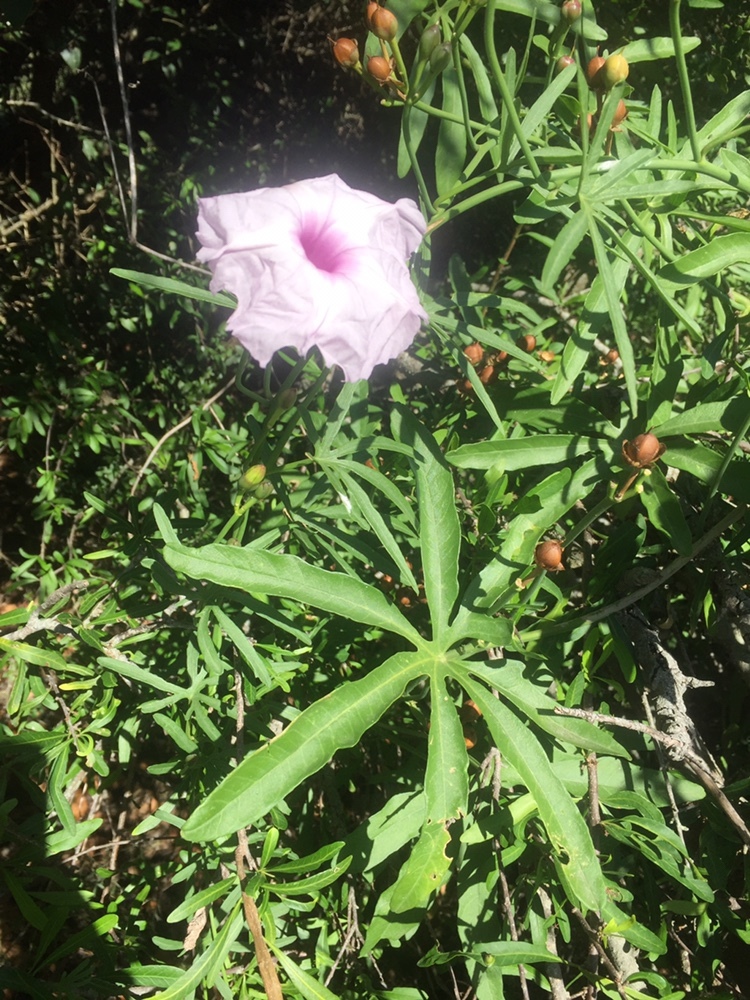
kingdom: Plantae
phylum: Tracheophyta
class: Magnoliopsida
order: Solanales
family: Convolvulaceae
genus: Ipomoea
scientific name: Ipomoea platensis
